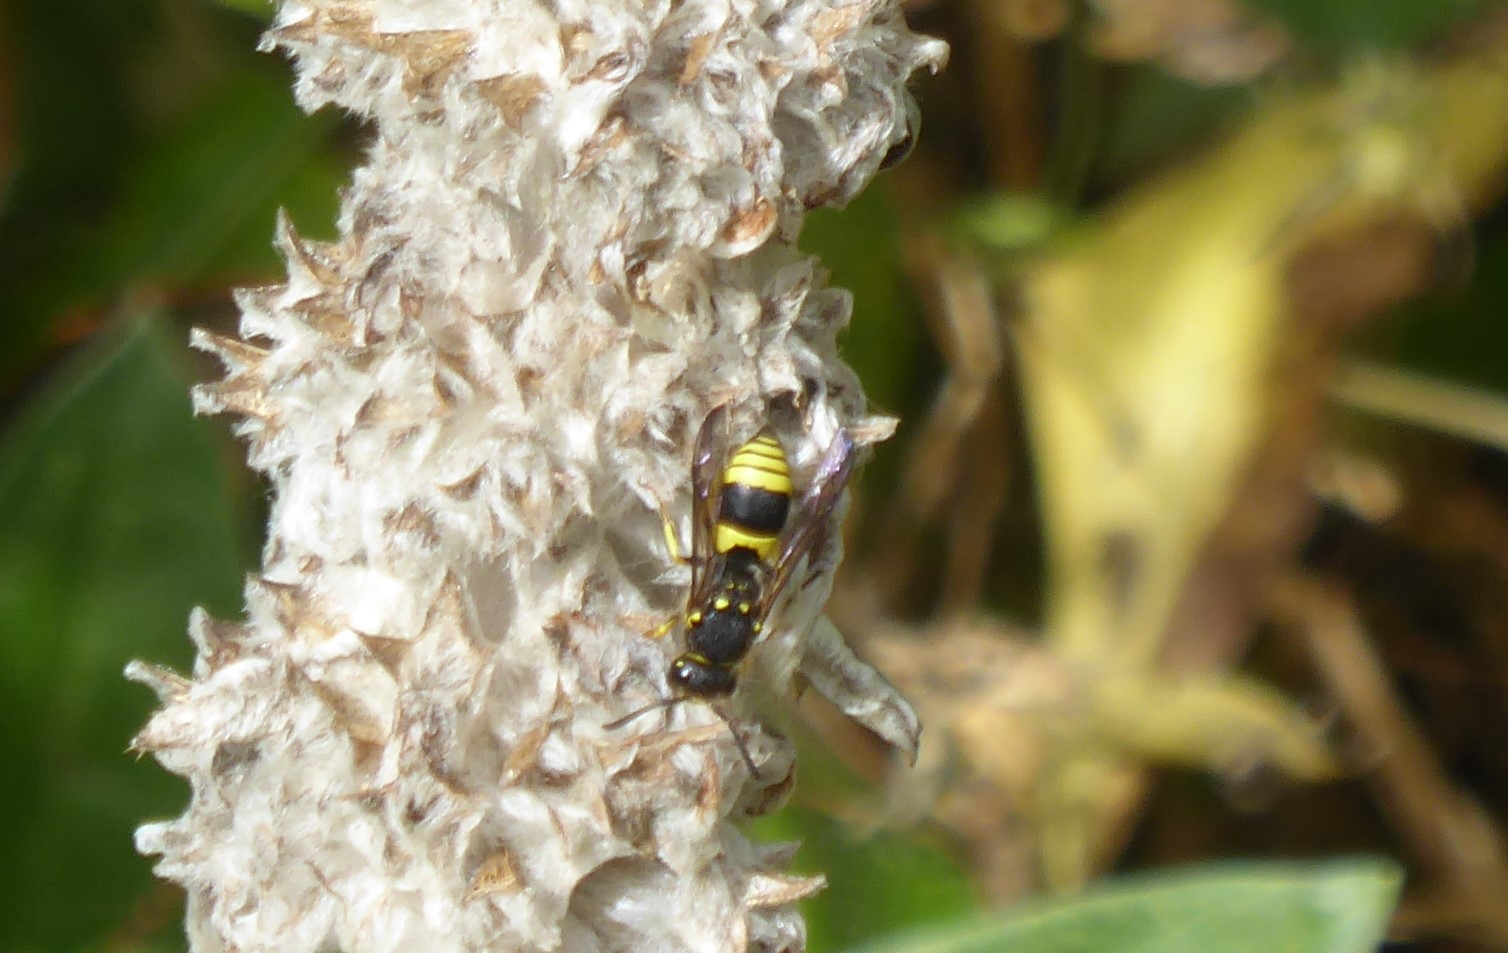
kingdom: Animalia
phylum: Arthropoda
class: Insecta
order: Hymenoptera
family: Vespidae
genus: Ancistrocerus
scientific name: Ancistrocerus gazella
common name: European tube wasp
